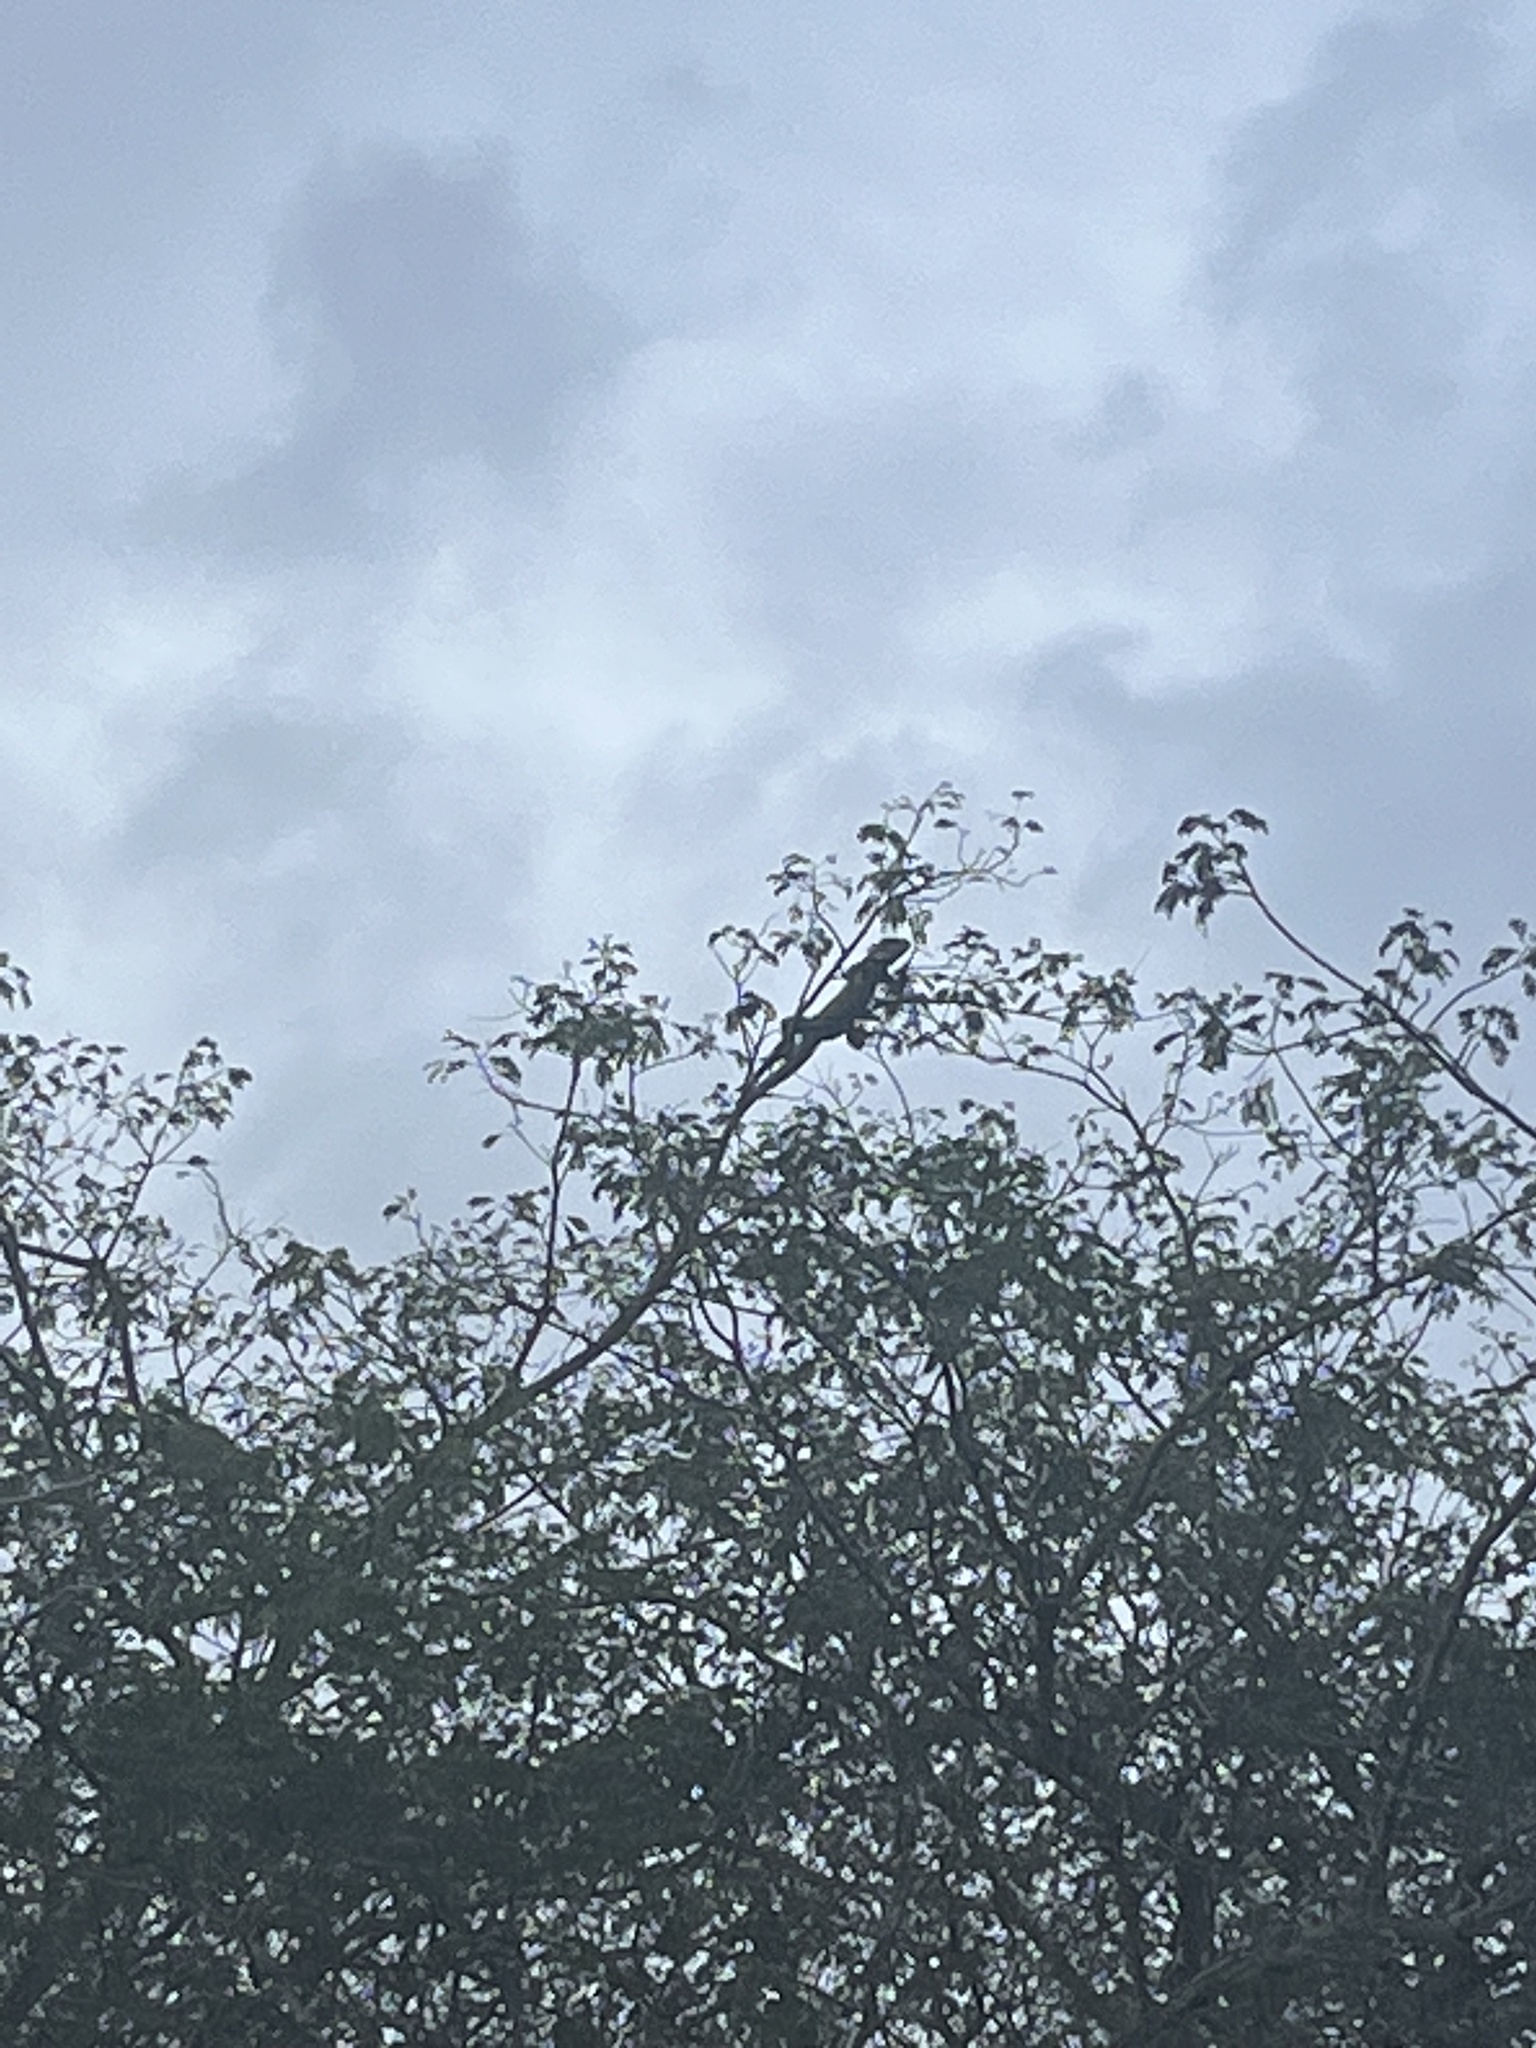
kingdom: Animalia
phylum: Chordata
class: Squamata
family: Iguanidae
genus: Iguana
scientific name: Iguana iguana
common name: Green iguana
